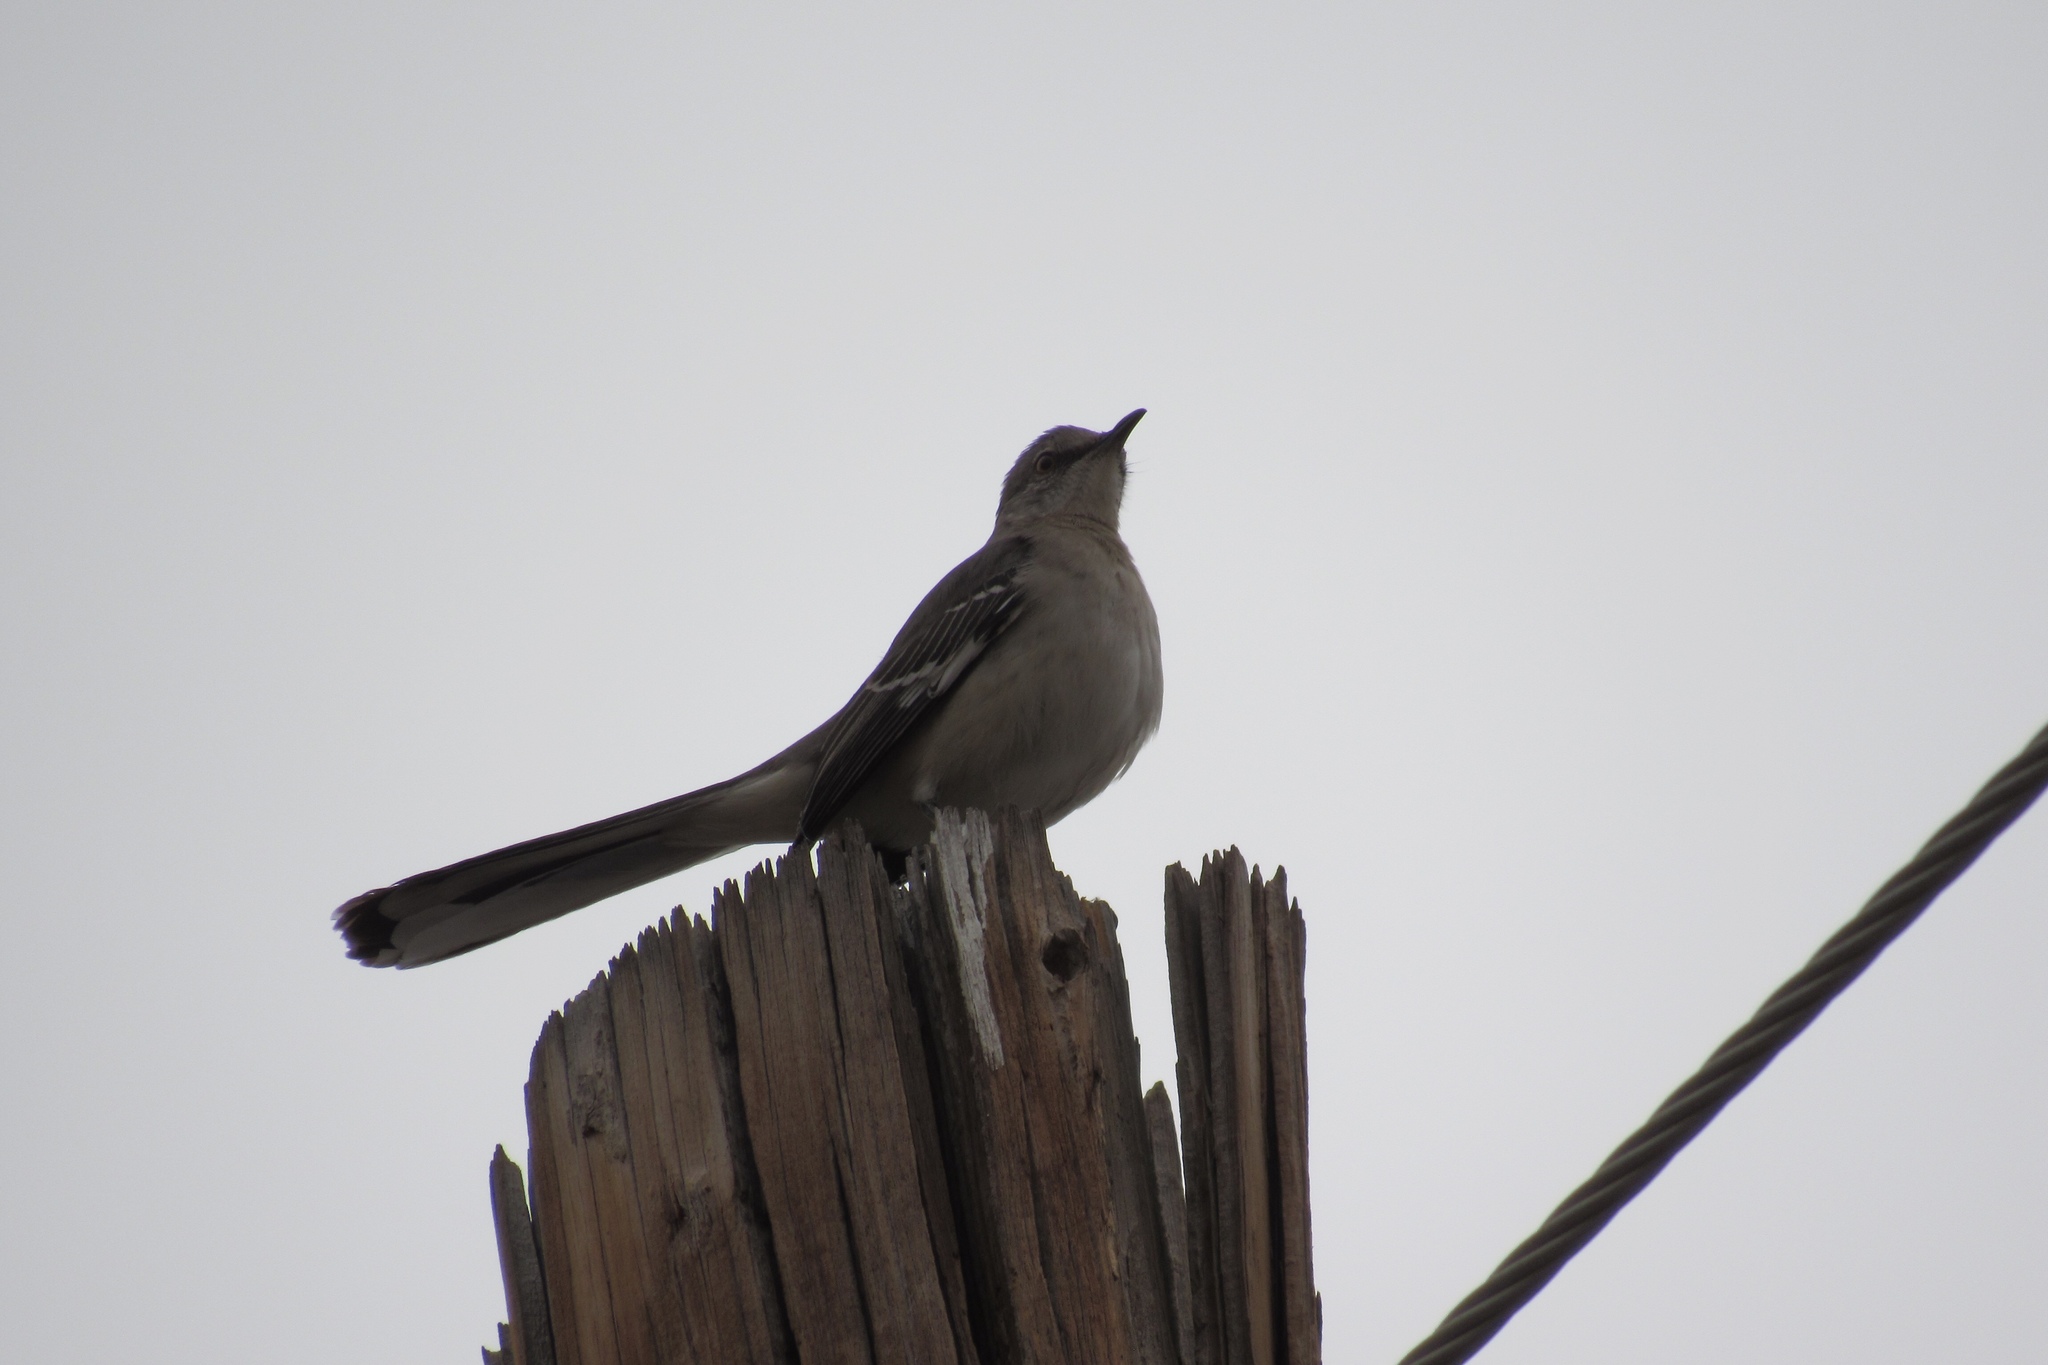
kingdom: Animalia
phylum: Chordata
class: Aves
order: Passeriformes
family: Mimidae
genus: Mimus
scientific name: Mimus polyglottos
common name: Northern mockingbird
